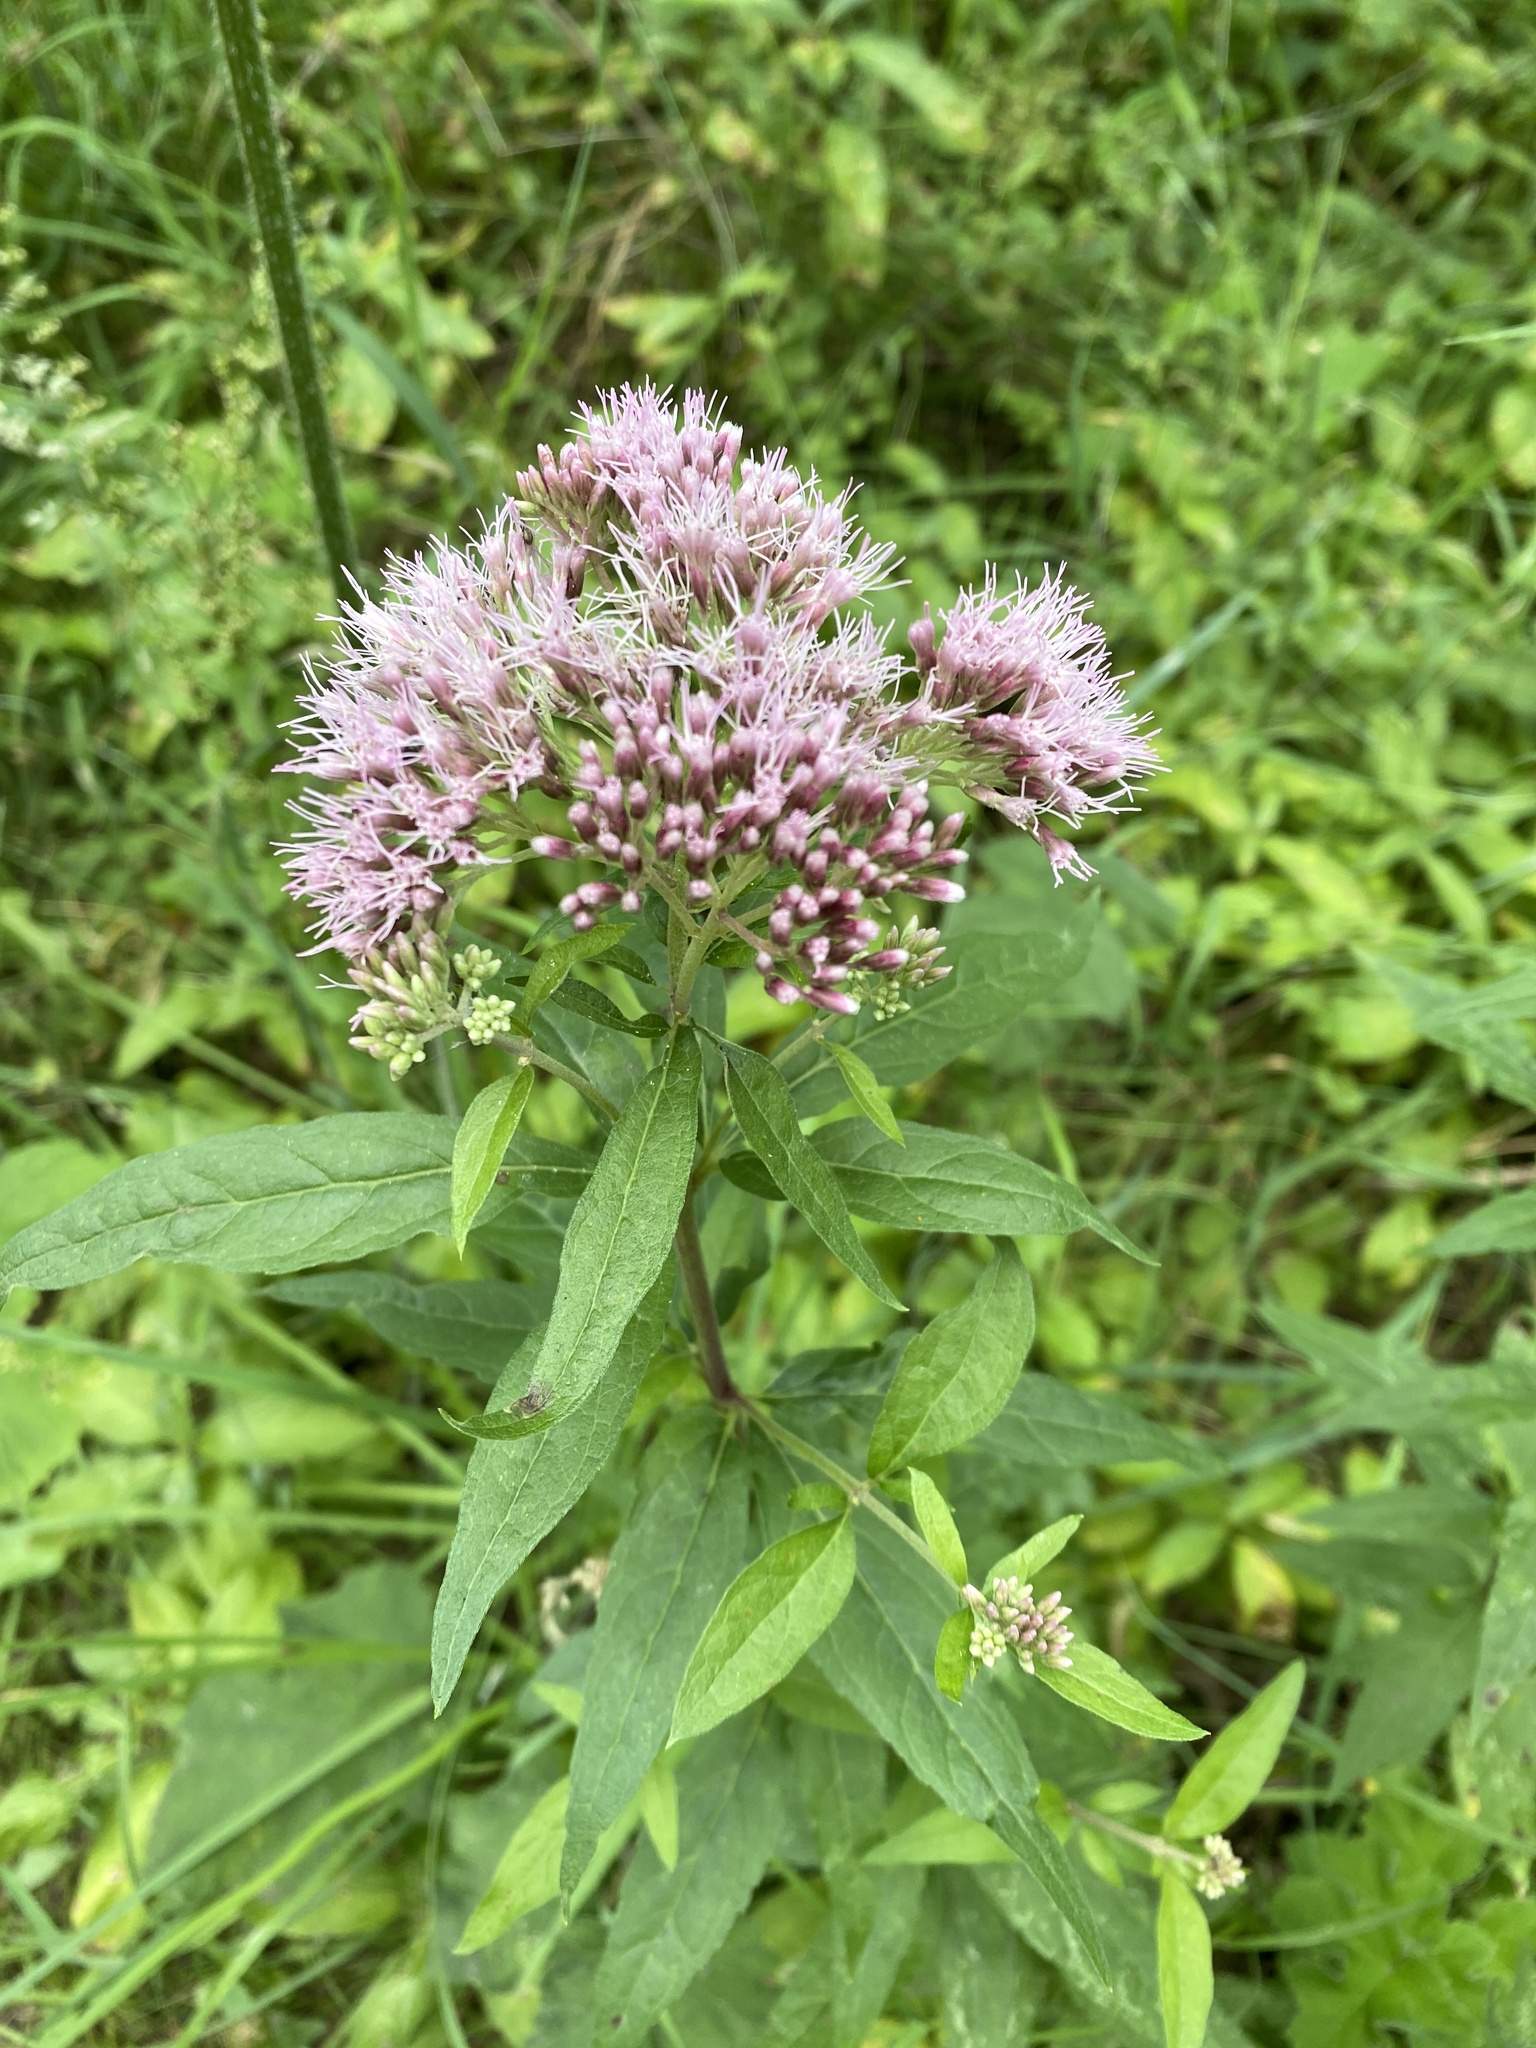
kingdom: Plantae
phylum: Tracheophyta
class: Magnoliopsida
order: Asterales
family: Asteraceae
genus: Eupatorium
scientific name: Eupatorium cannabinum
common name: Hemp-agrimony
